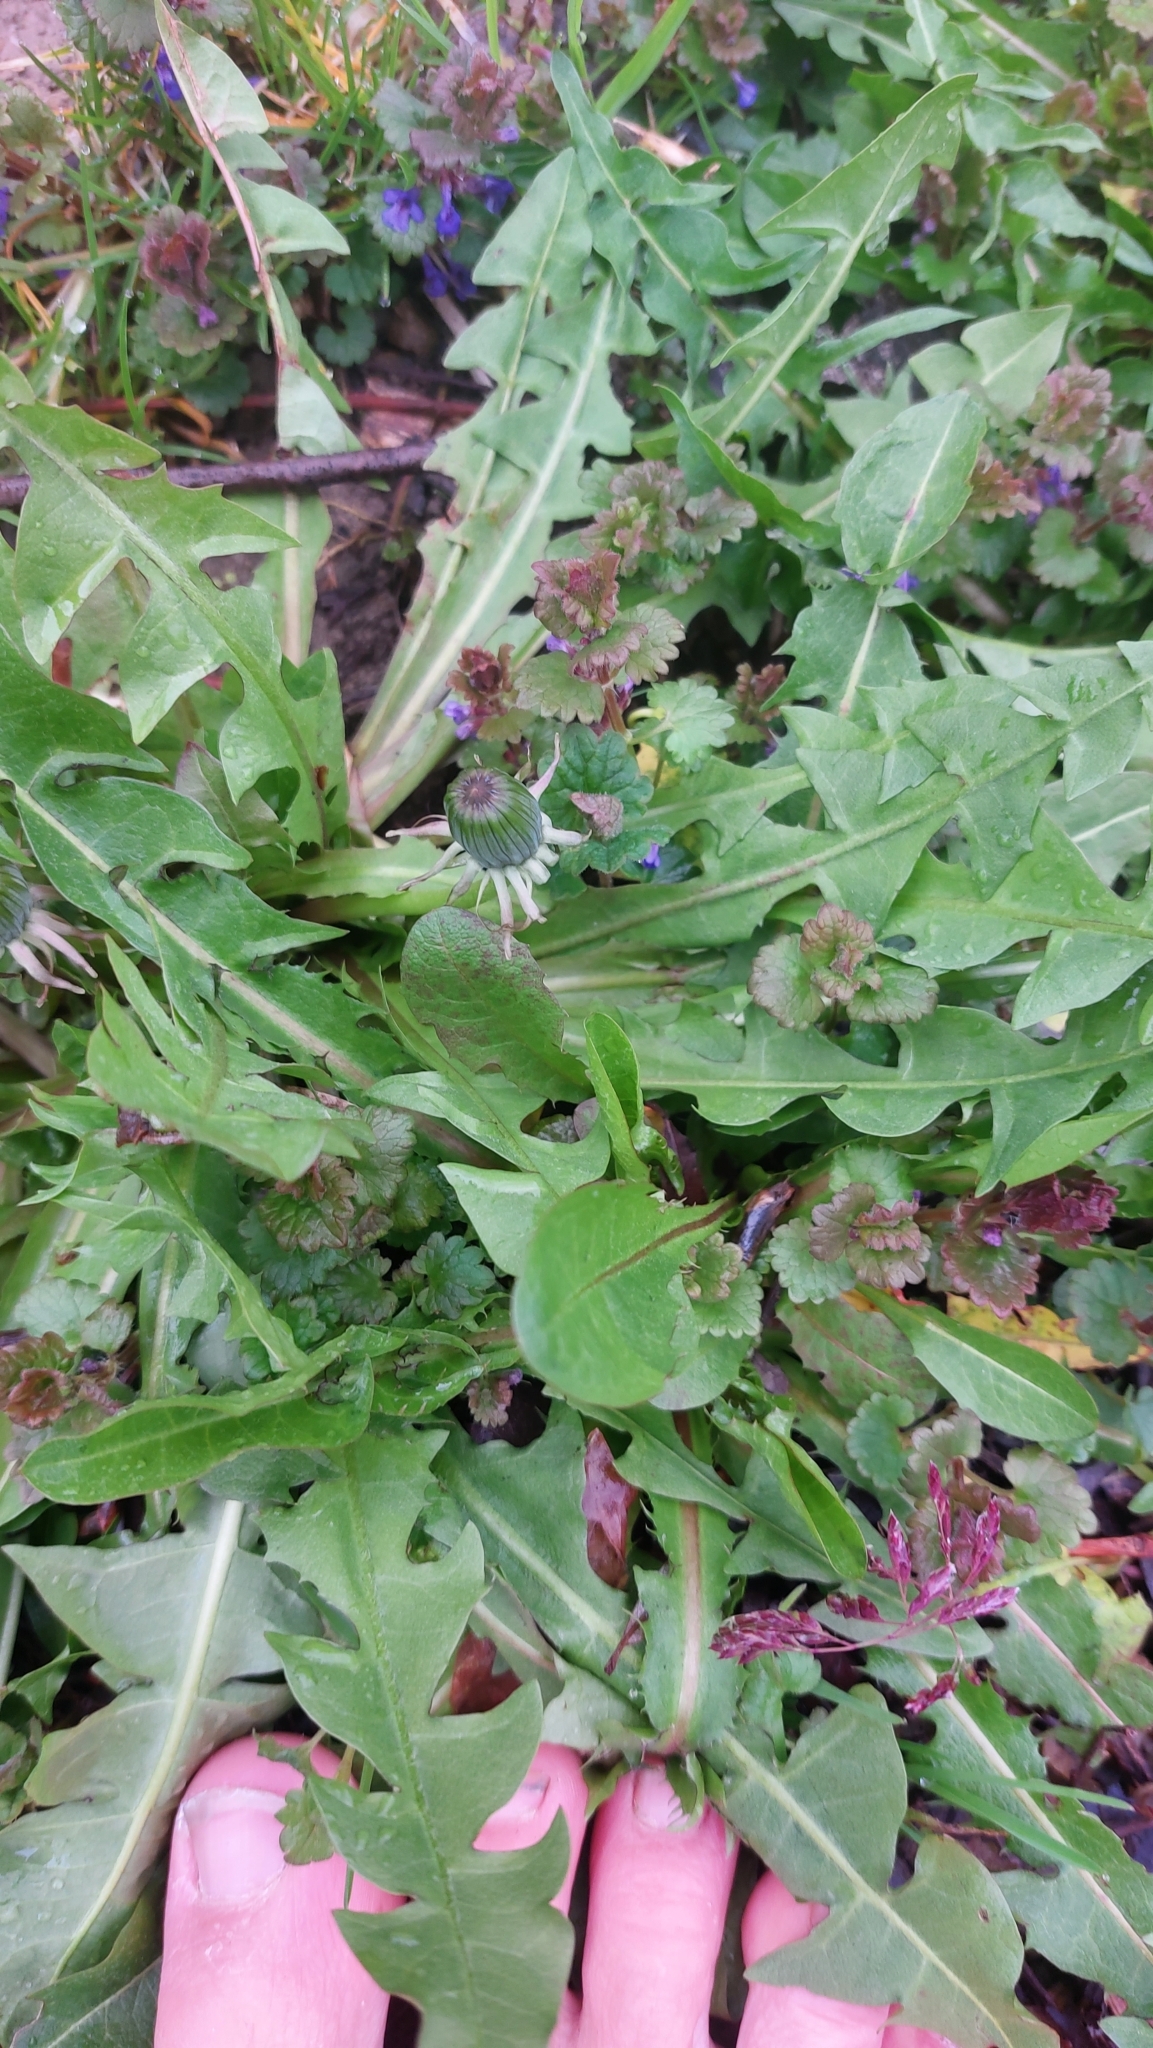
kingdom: Plantae
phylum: Tracheophyta
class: Magnoliopsida
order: Asterales
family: Asteraceae
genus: Taraxacum
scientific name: Taraxacum
